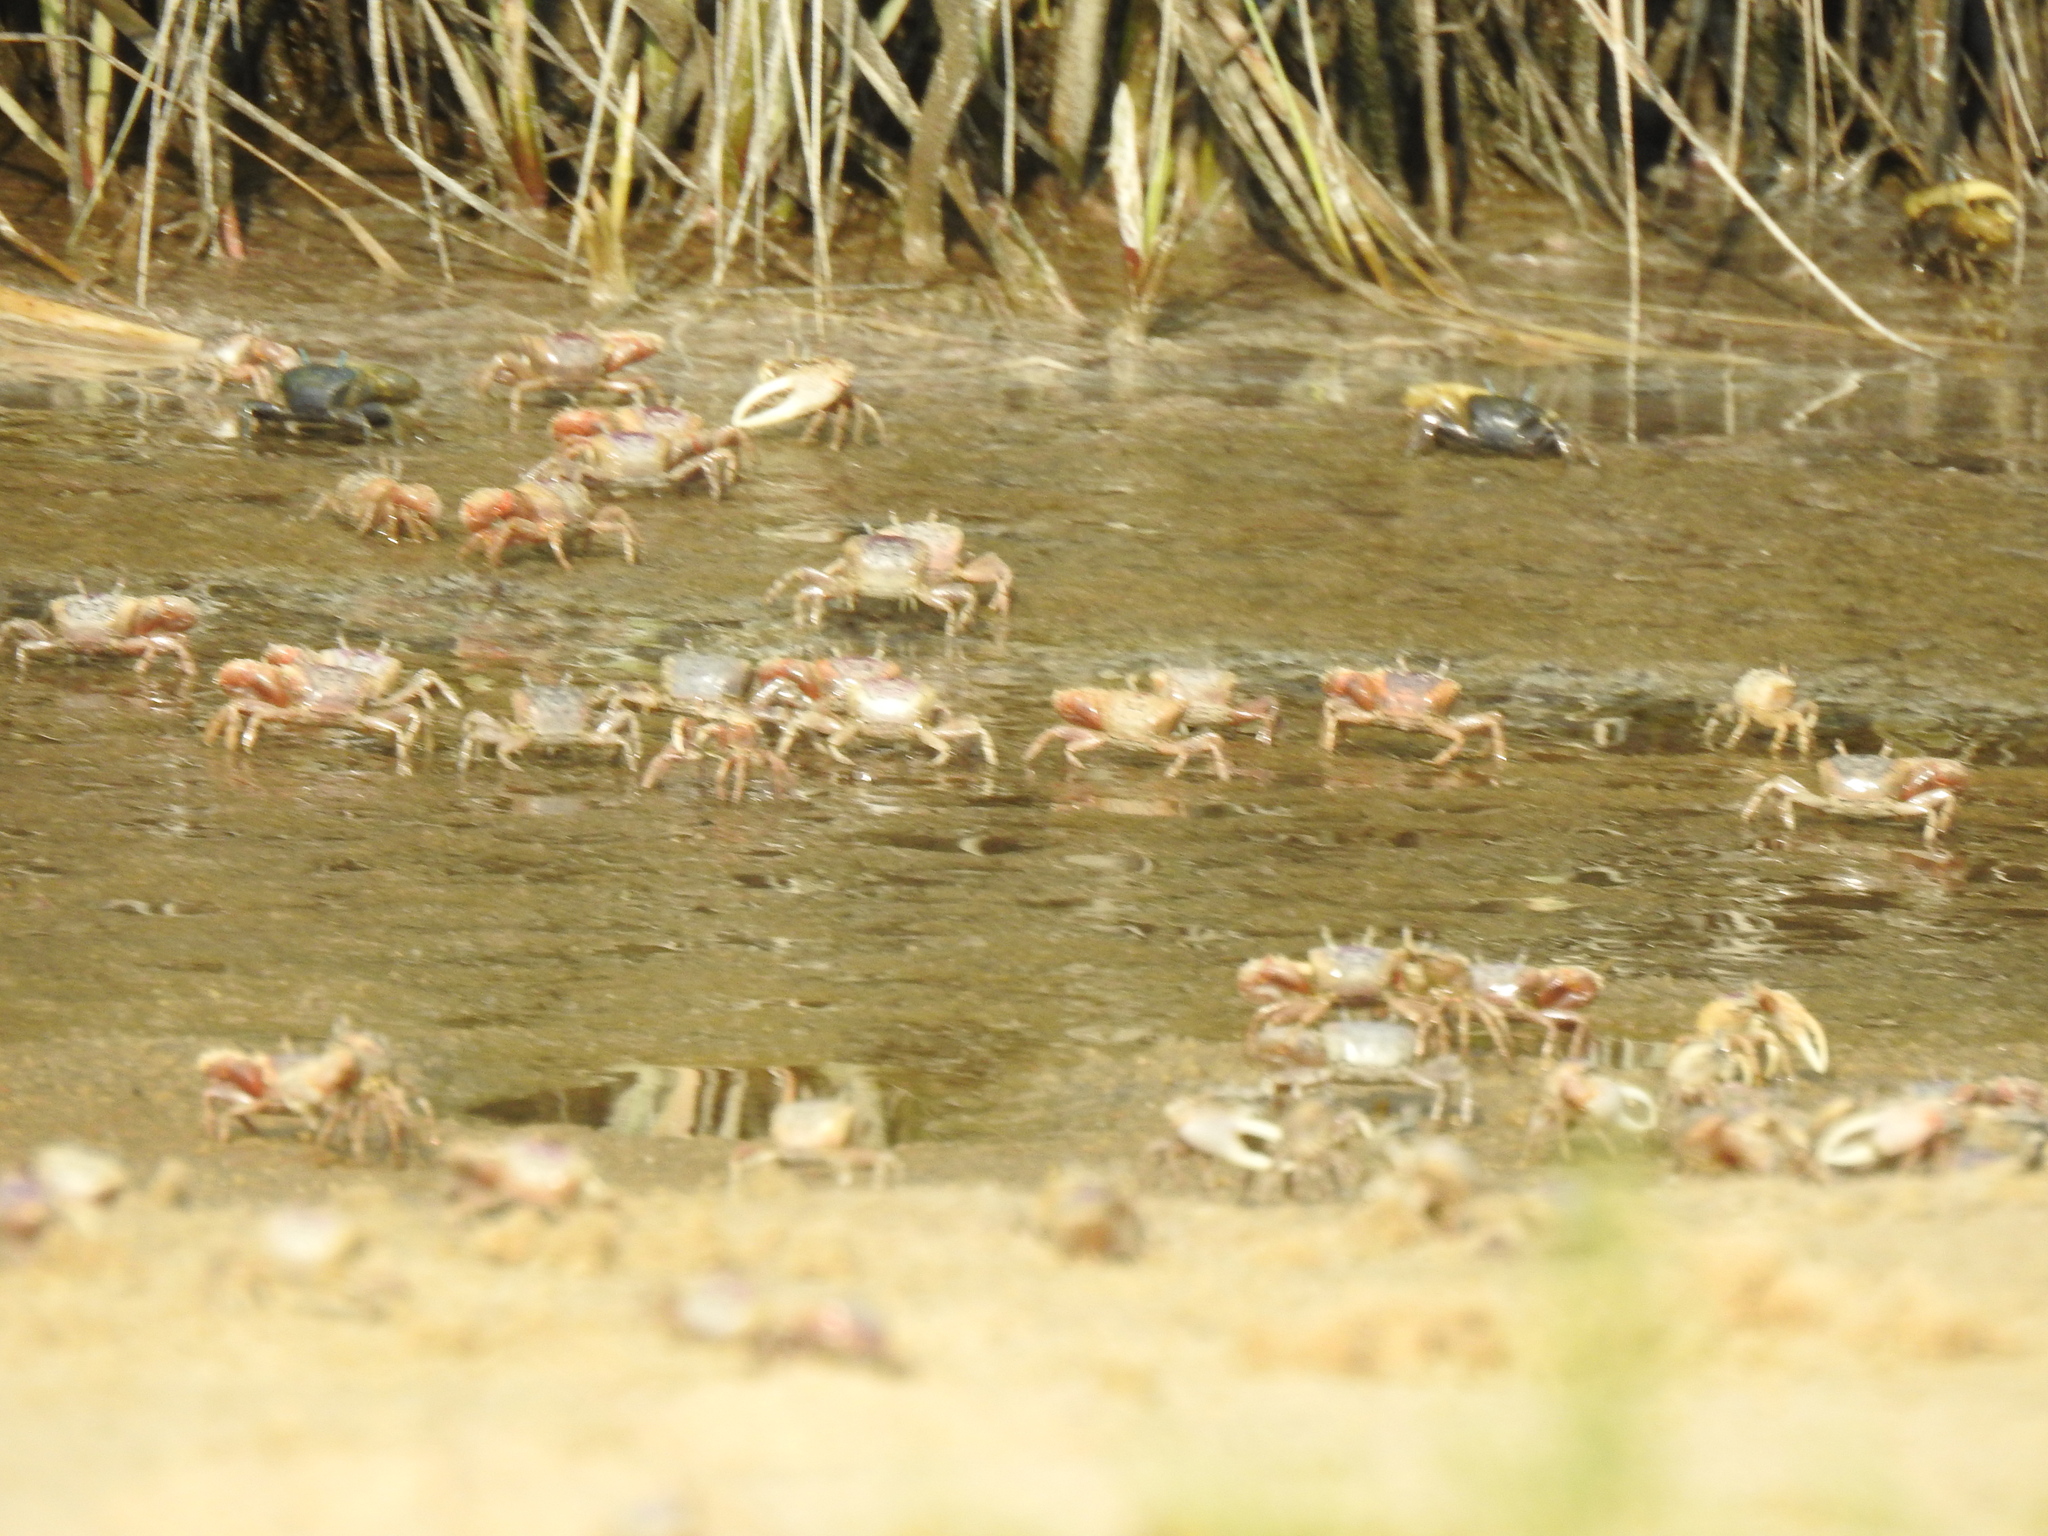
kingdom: Animalia
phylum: Arthropoda
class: Malacostraca
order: Decapoda
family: Ocypodidae
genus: Leptuca
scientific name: Leptuca pugilator
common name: Atlantic sand fiddler crab
